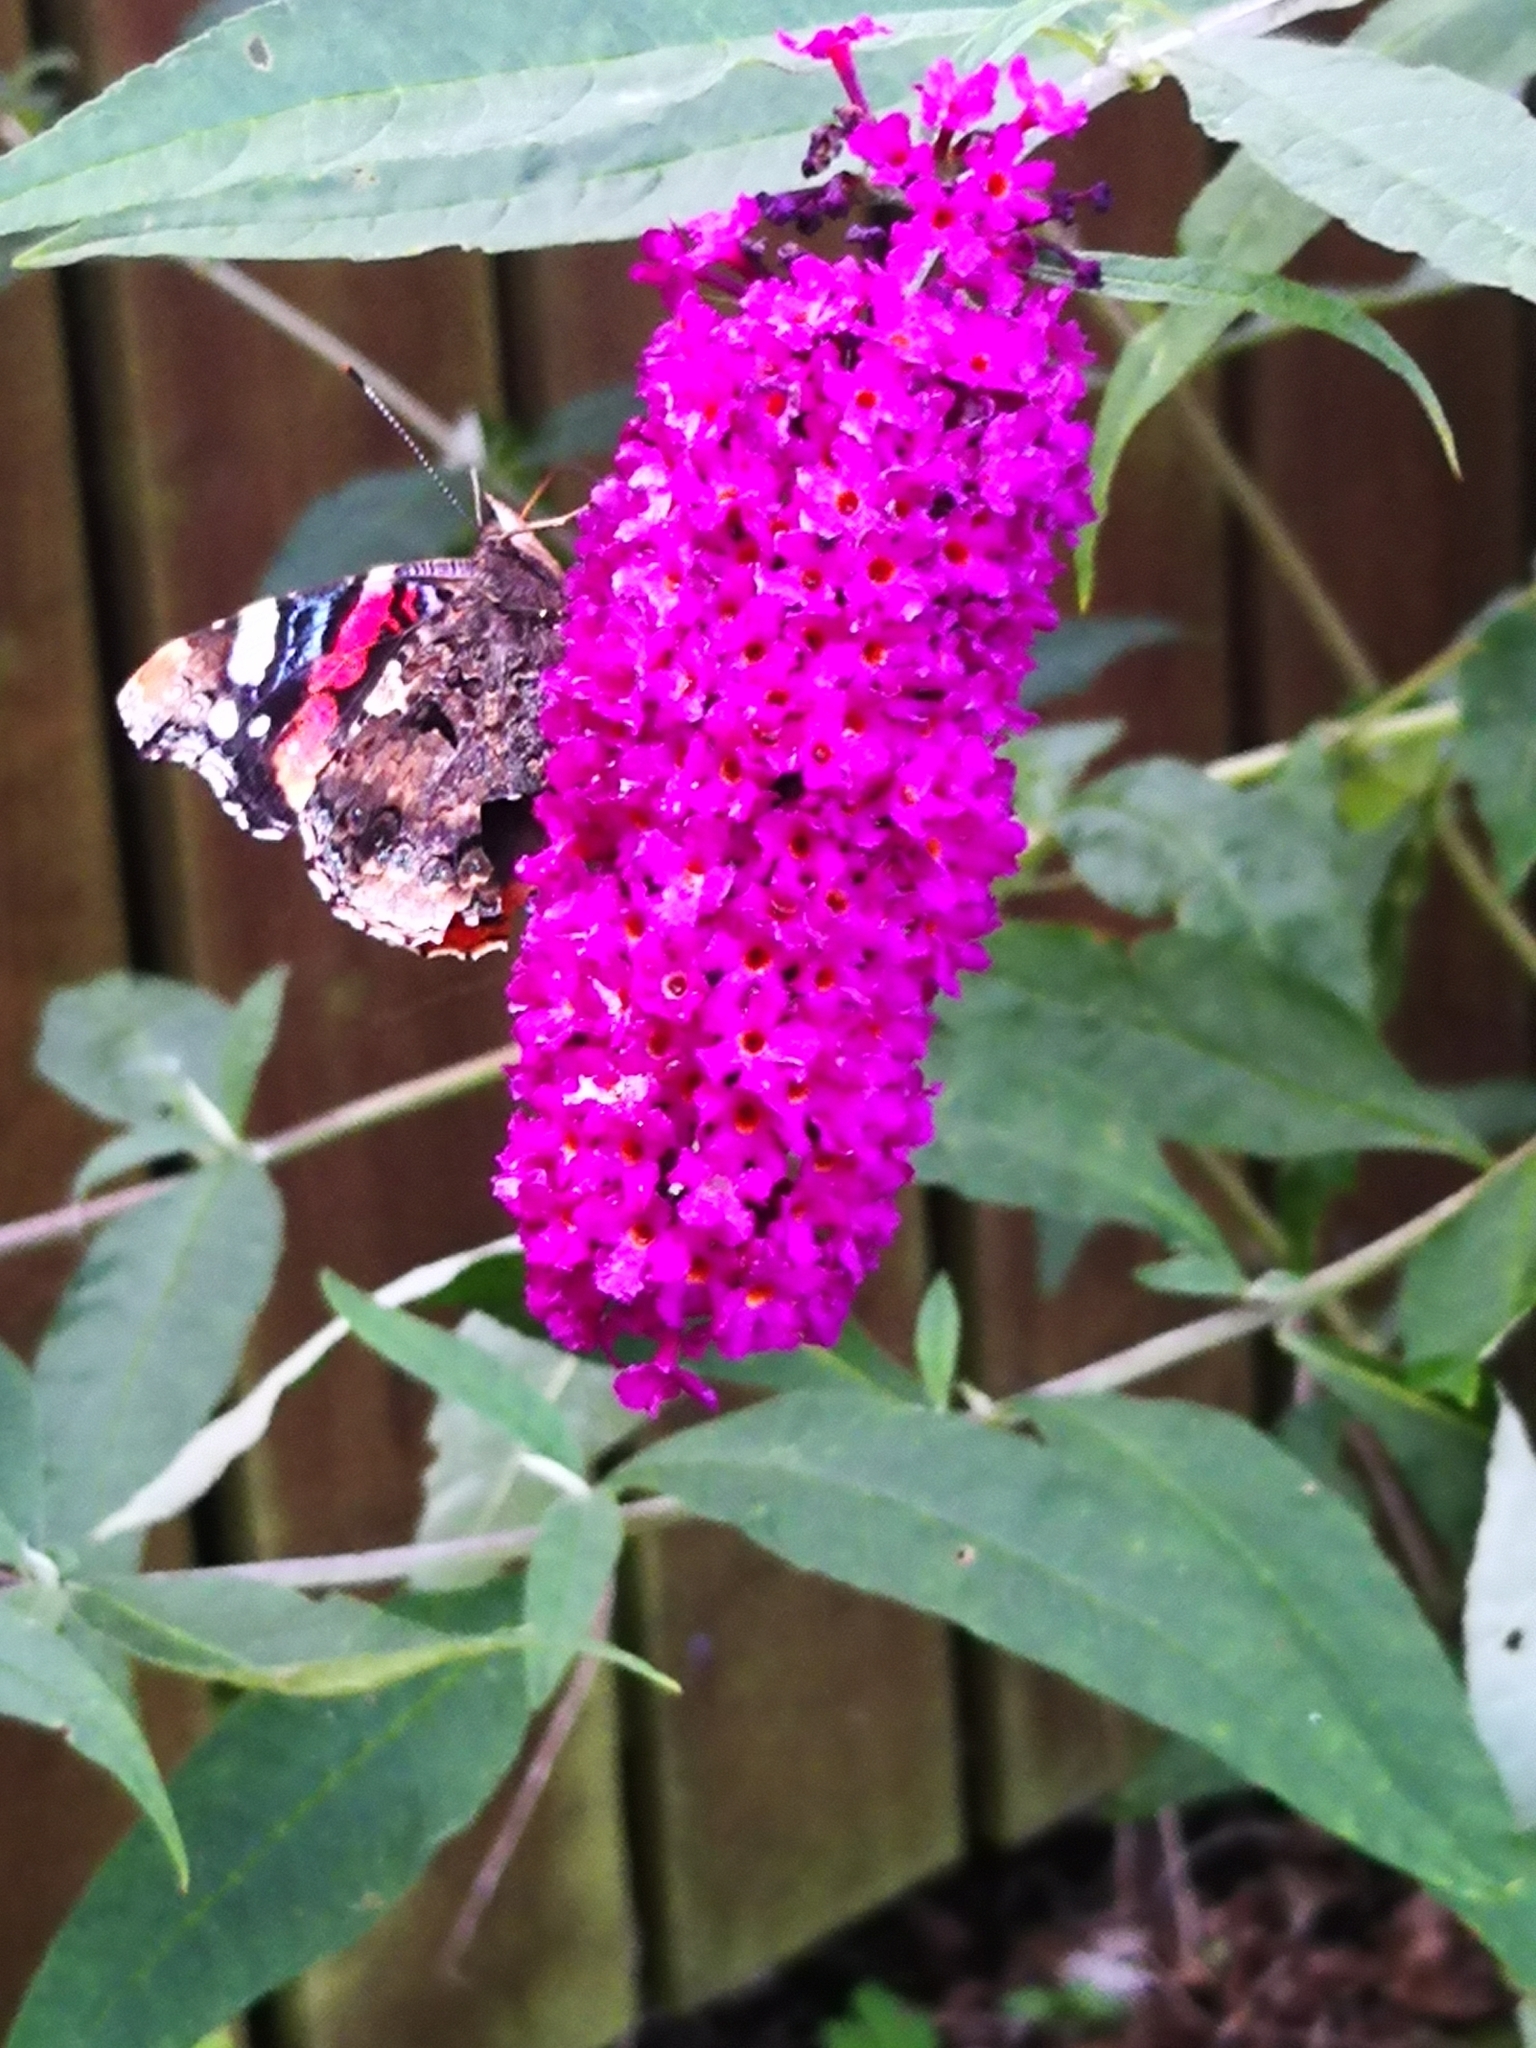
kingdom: Animalia
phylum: Arthropoda
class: Insecta
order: Lepidoptera
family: Nymphalidae
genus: Vanessa
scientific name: Vanessa atalanta
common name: Red admiral
